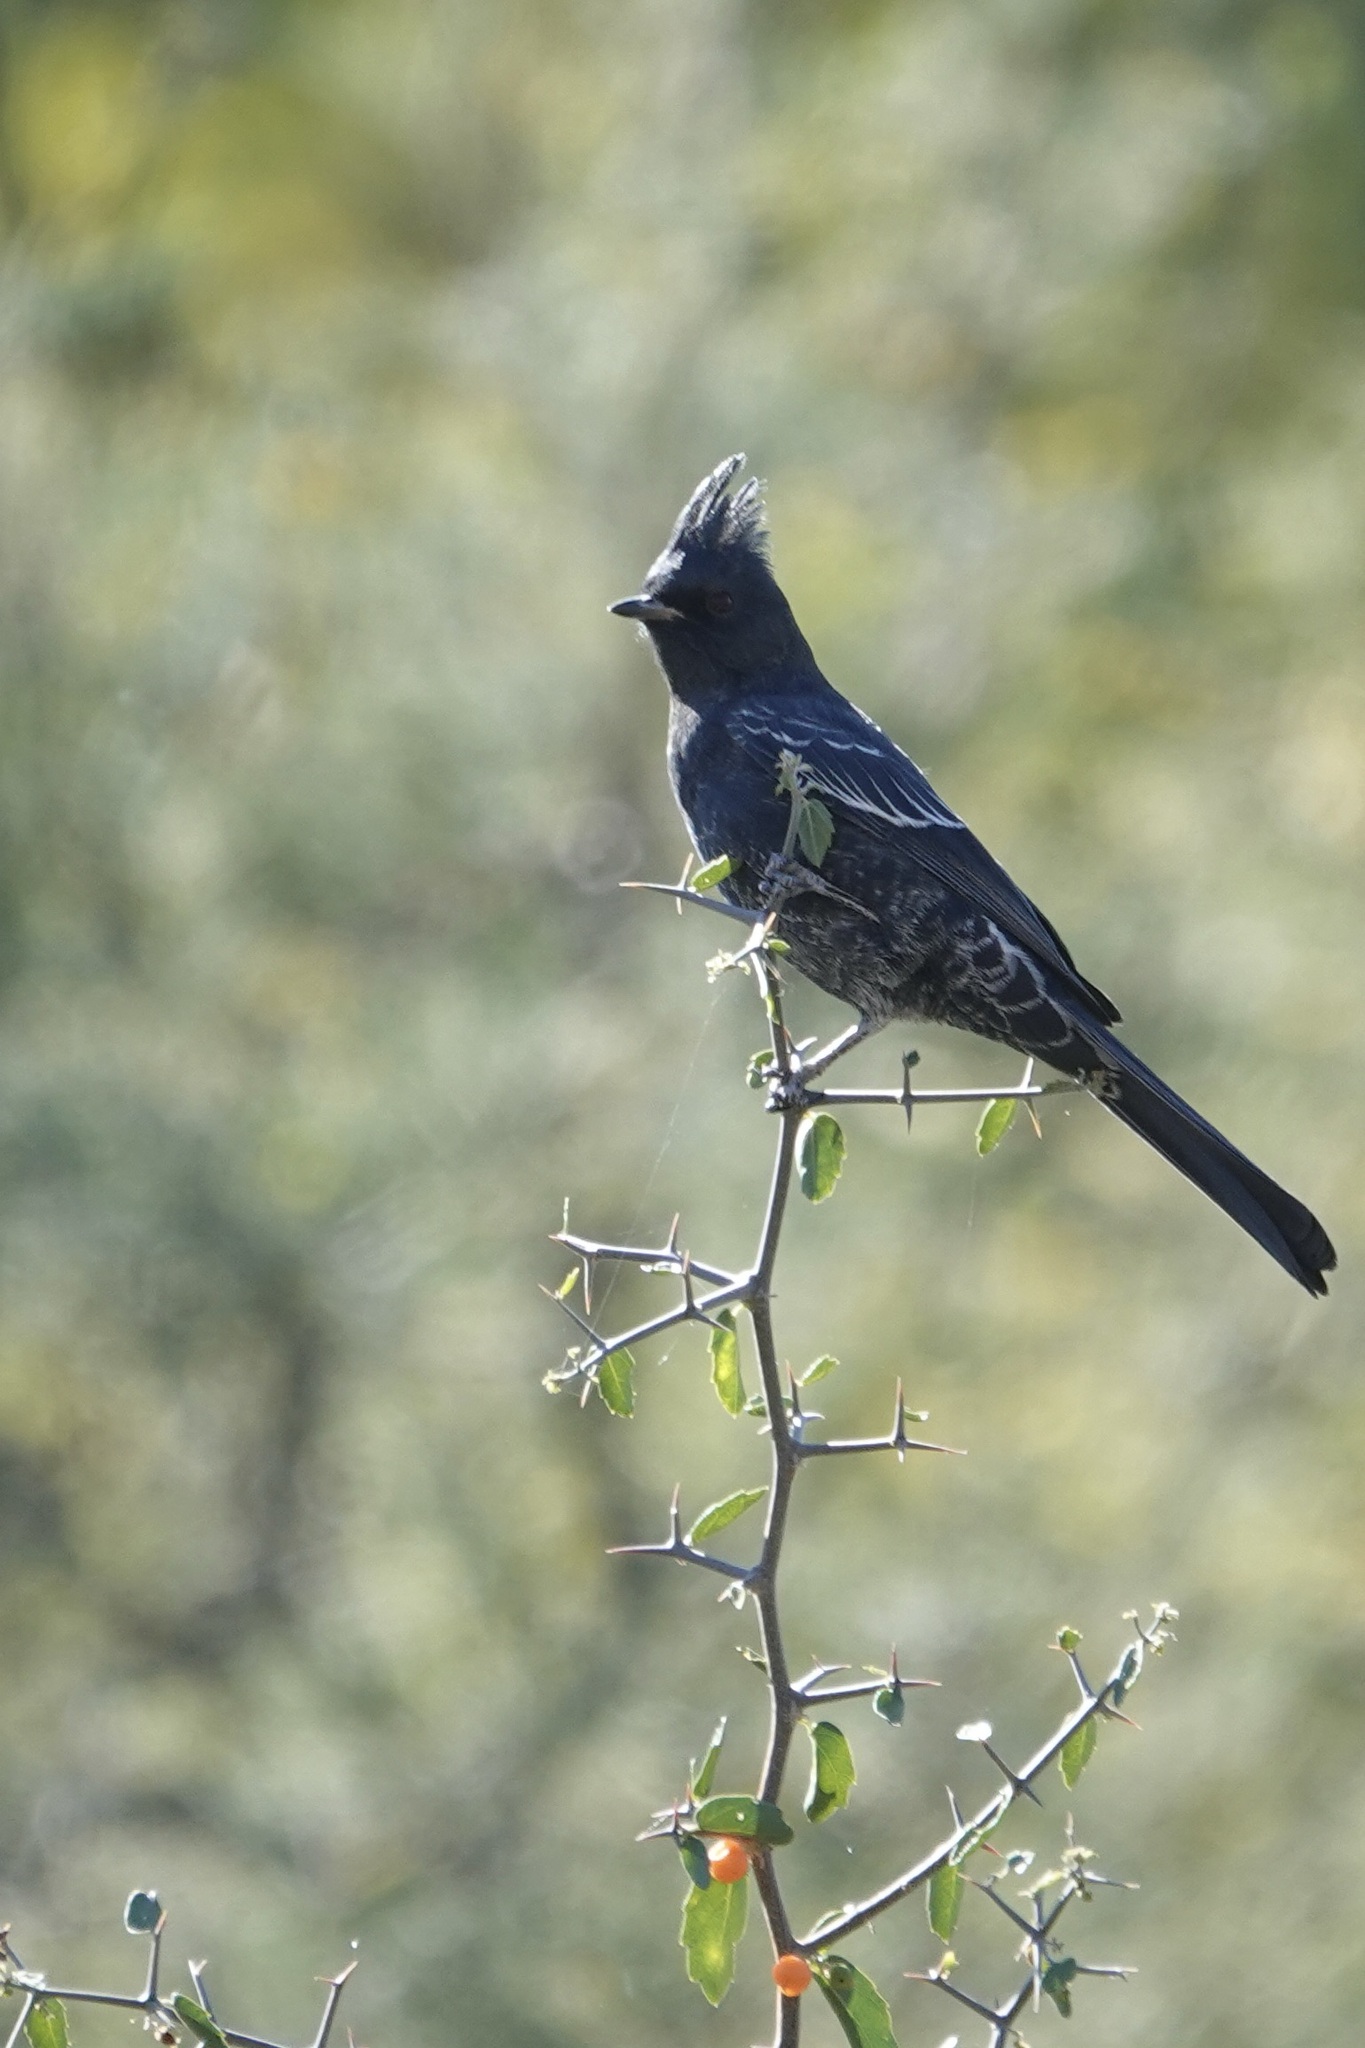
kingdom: Animalia
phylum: Chordata
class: Aves
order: Passeriformes
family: Ptilogonatidae
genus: Phainopepla
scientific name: Phainopepla nitens
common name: Phainopepla
